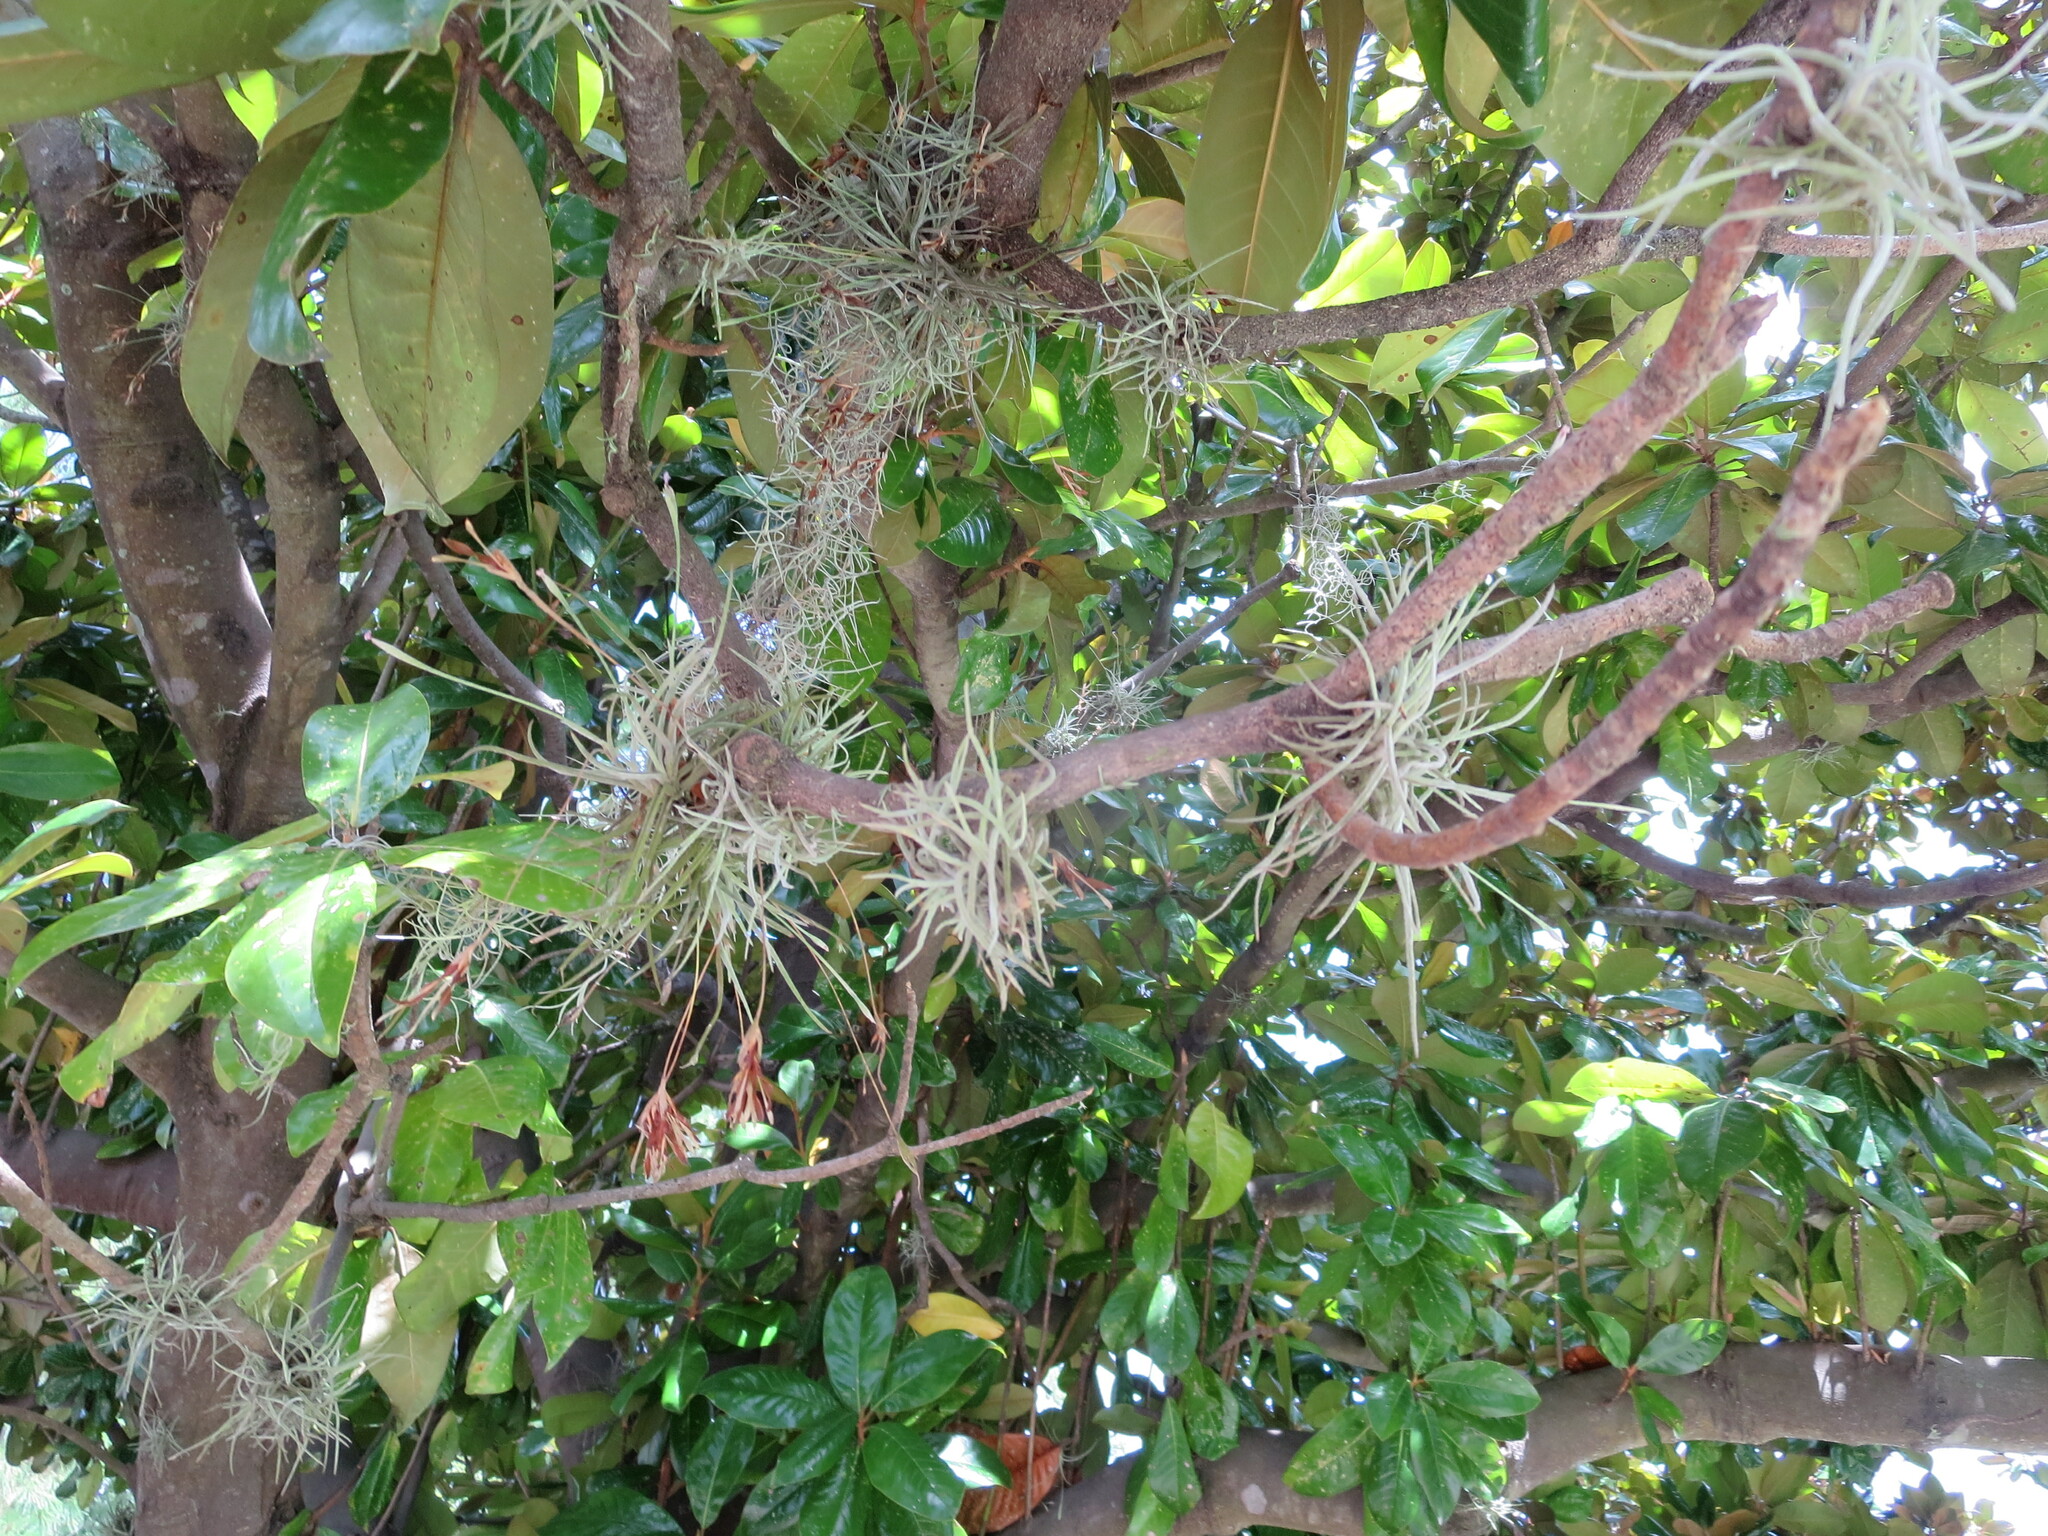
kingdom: Plantae
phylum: Tracheophyta
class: Liliopsida
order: Poales
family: Bromeliaceae
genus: Tillandsia
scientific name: Tillandsia recurvata
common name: Small ballmoss
